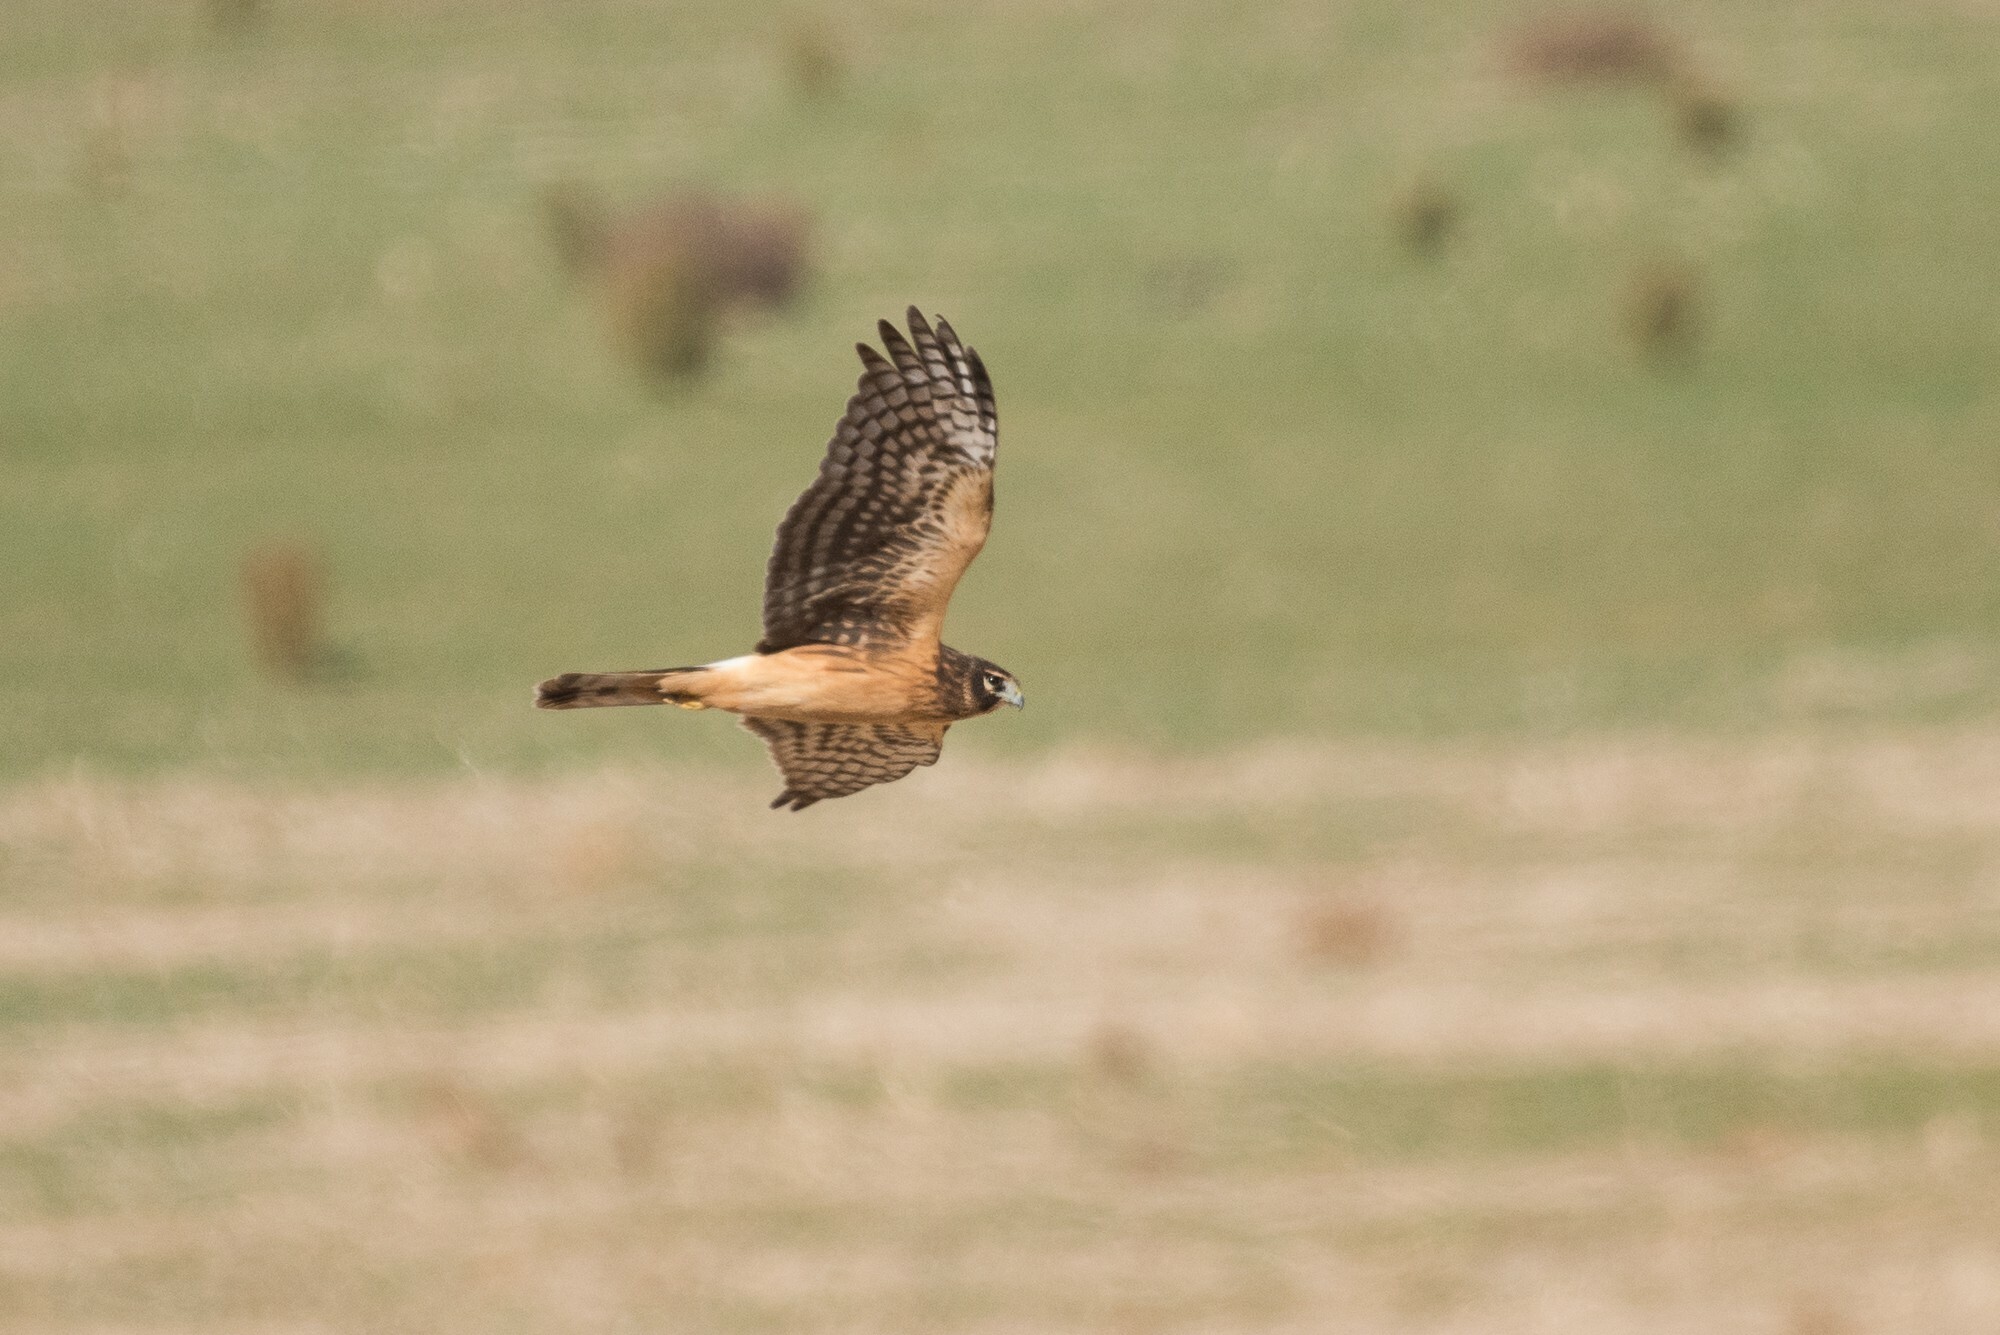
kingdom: Animalia
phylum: Chordata
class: Aves
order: Accipitriformes
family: Accipitridae
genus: Circus
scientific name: Circus cyaneus
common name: Hen harrier
